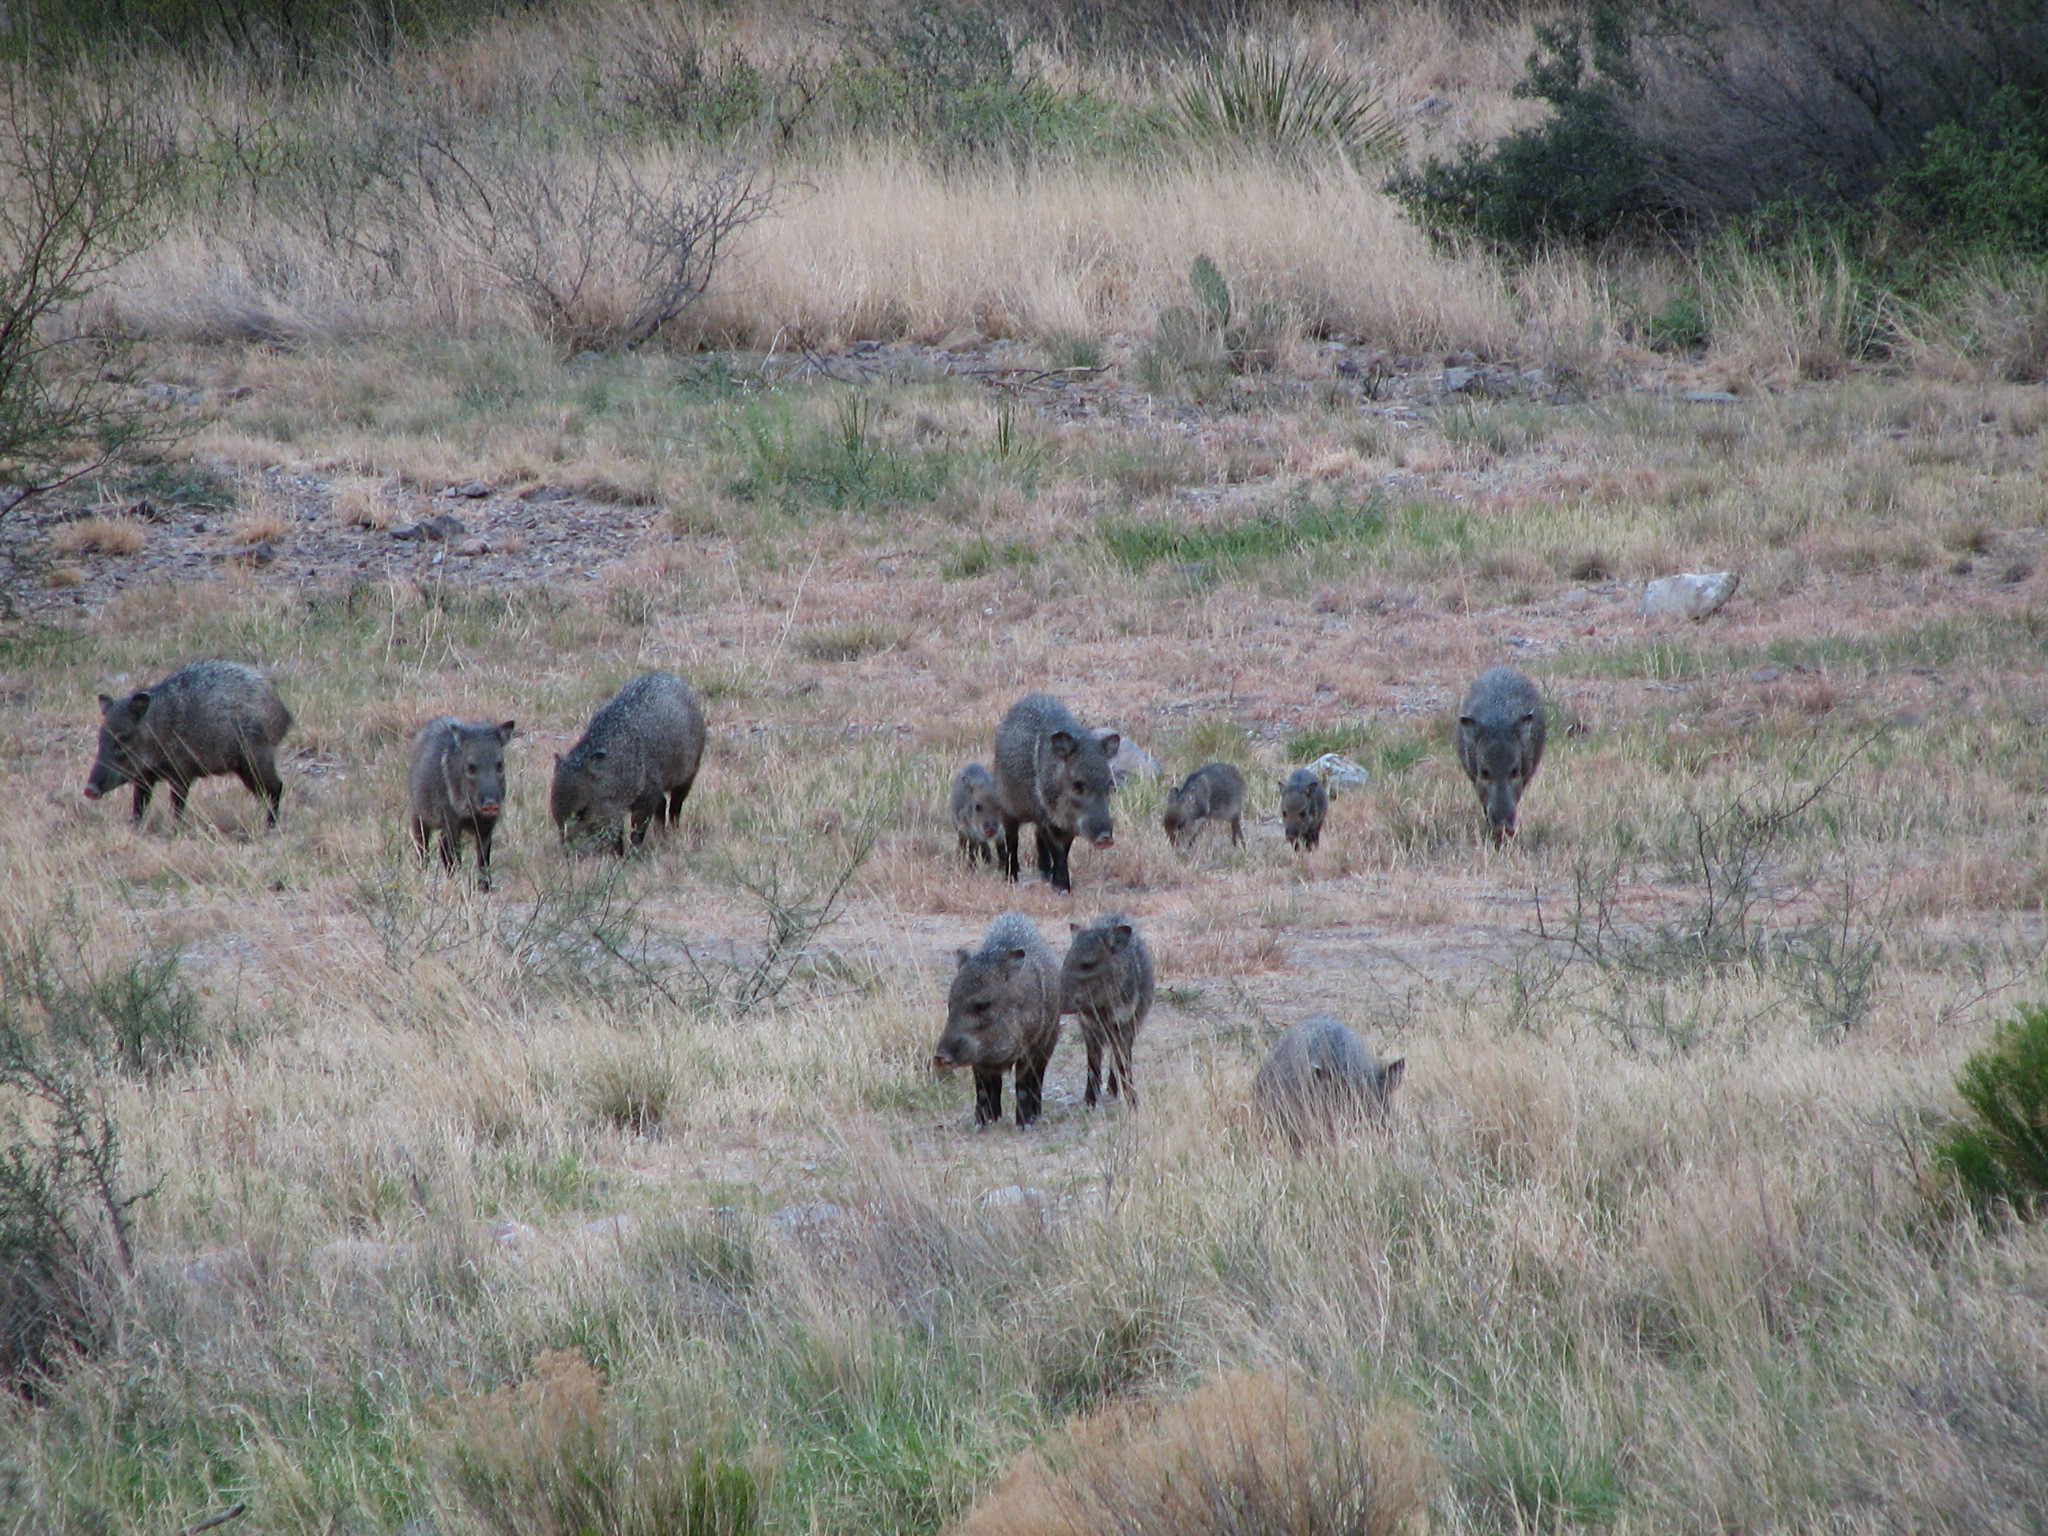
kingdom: Animalia
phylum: Chordata
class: Mammalia
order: Artiodactyla
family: Tayassuidae
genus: Pecari
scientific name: Pecari tajacu
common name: Collared peccary
